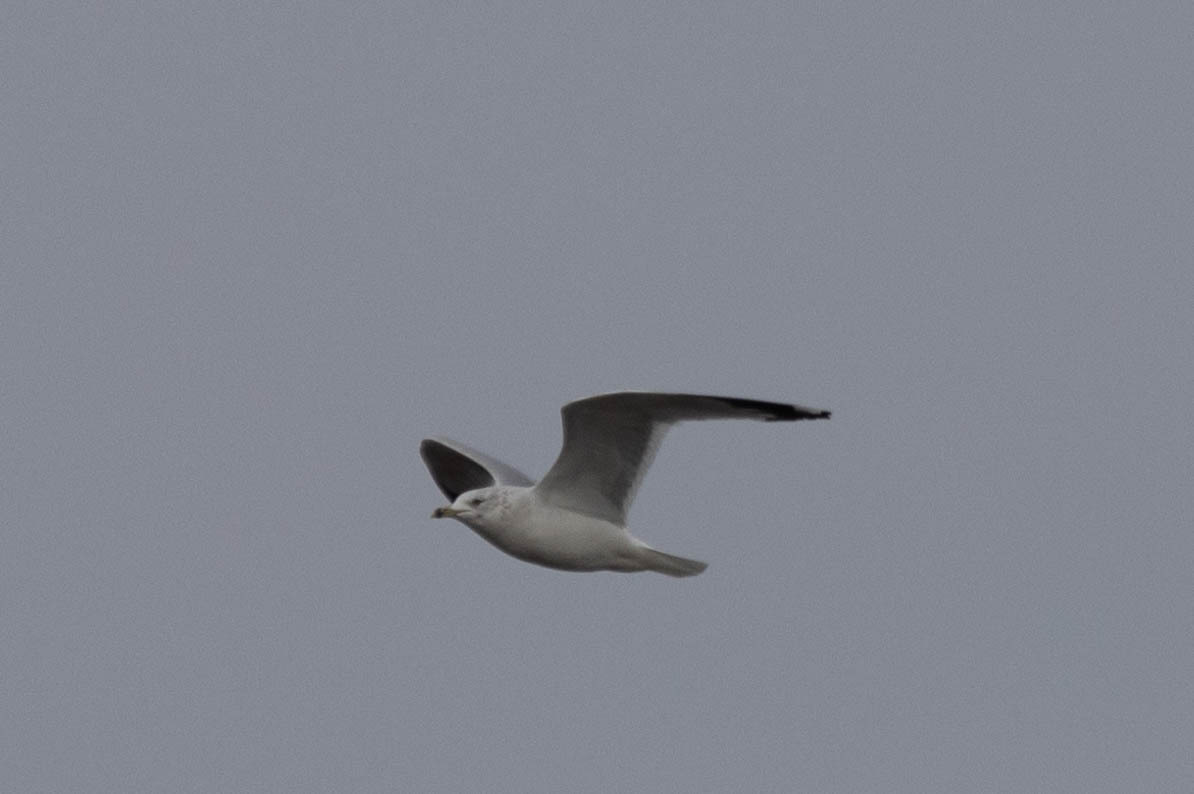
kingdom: Animalia
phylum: Chordata
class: Aves
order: Charadriiformes
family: Laridae
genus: Larus
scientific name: Larus delawarensis
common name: Ring-billed gull
